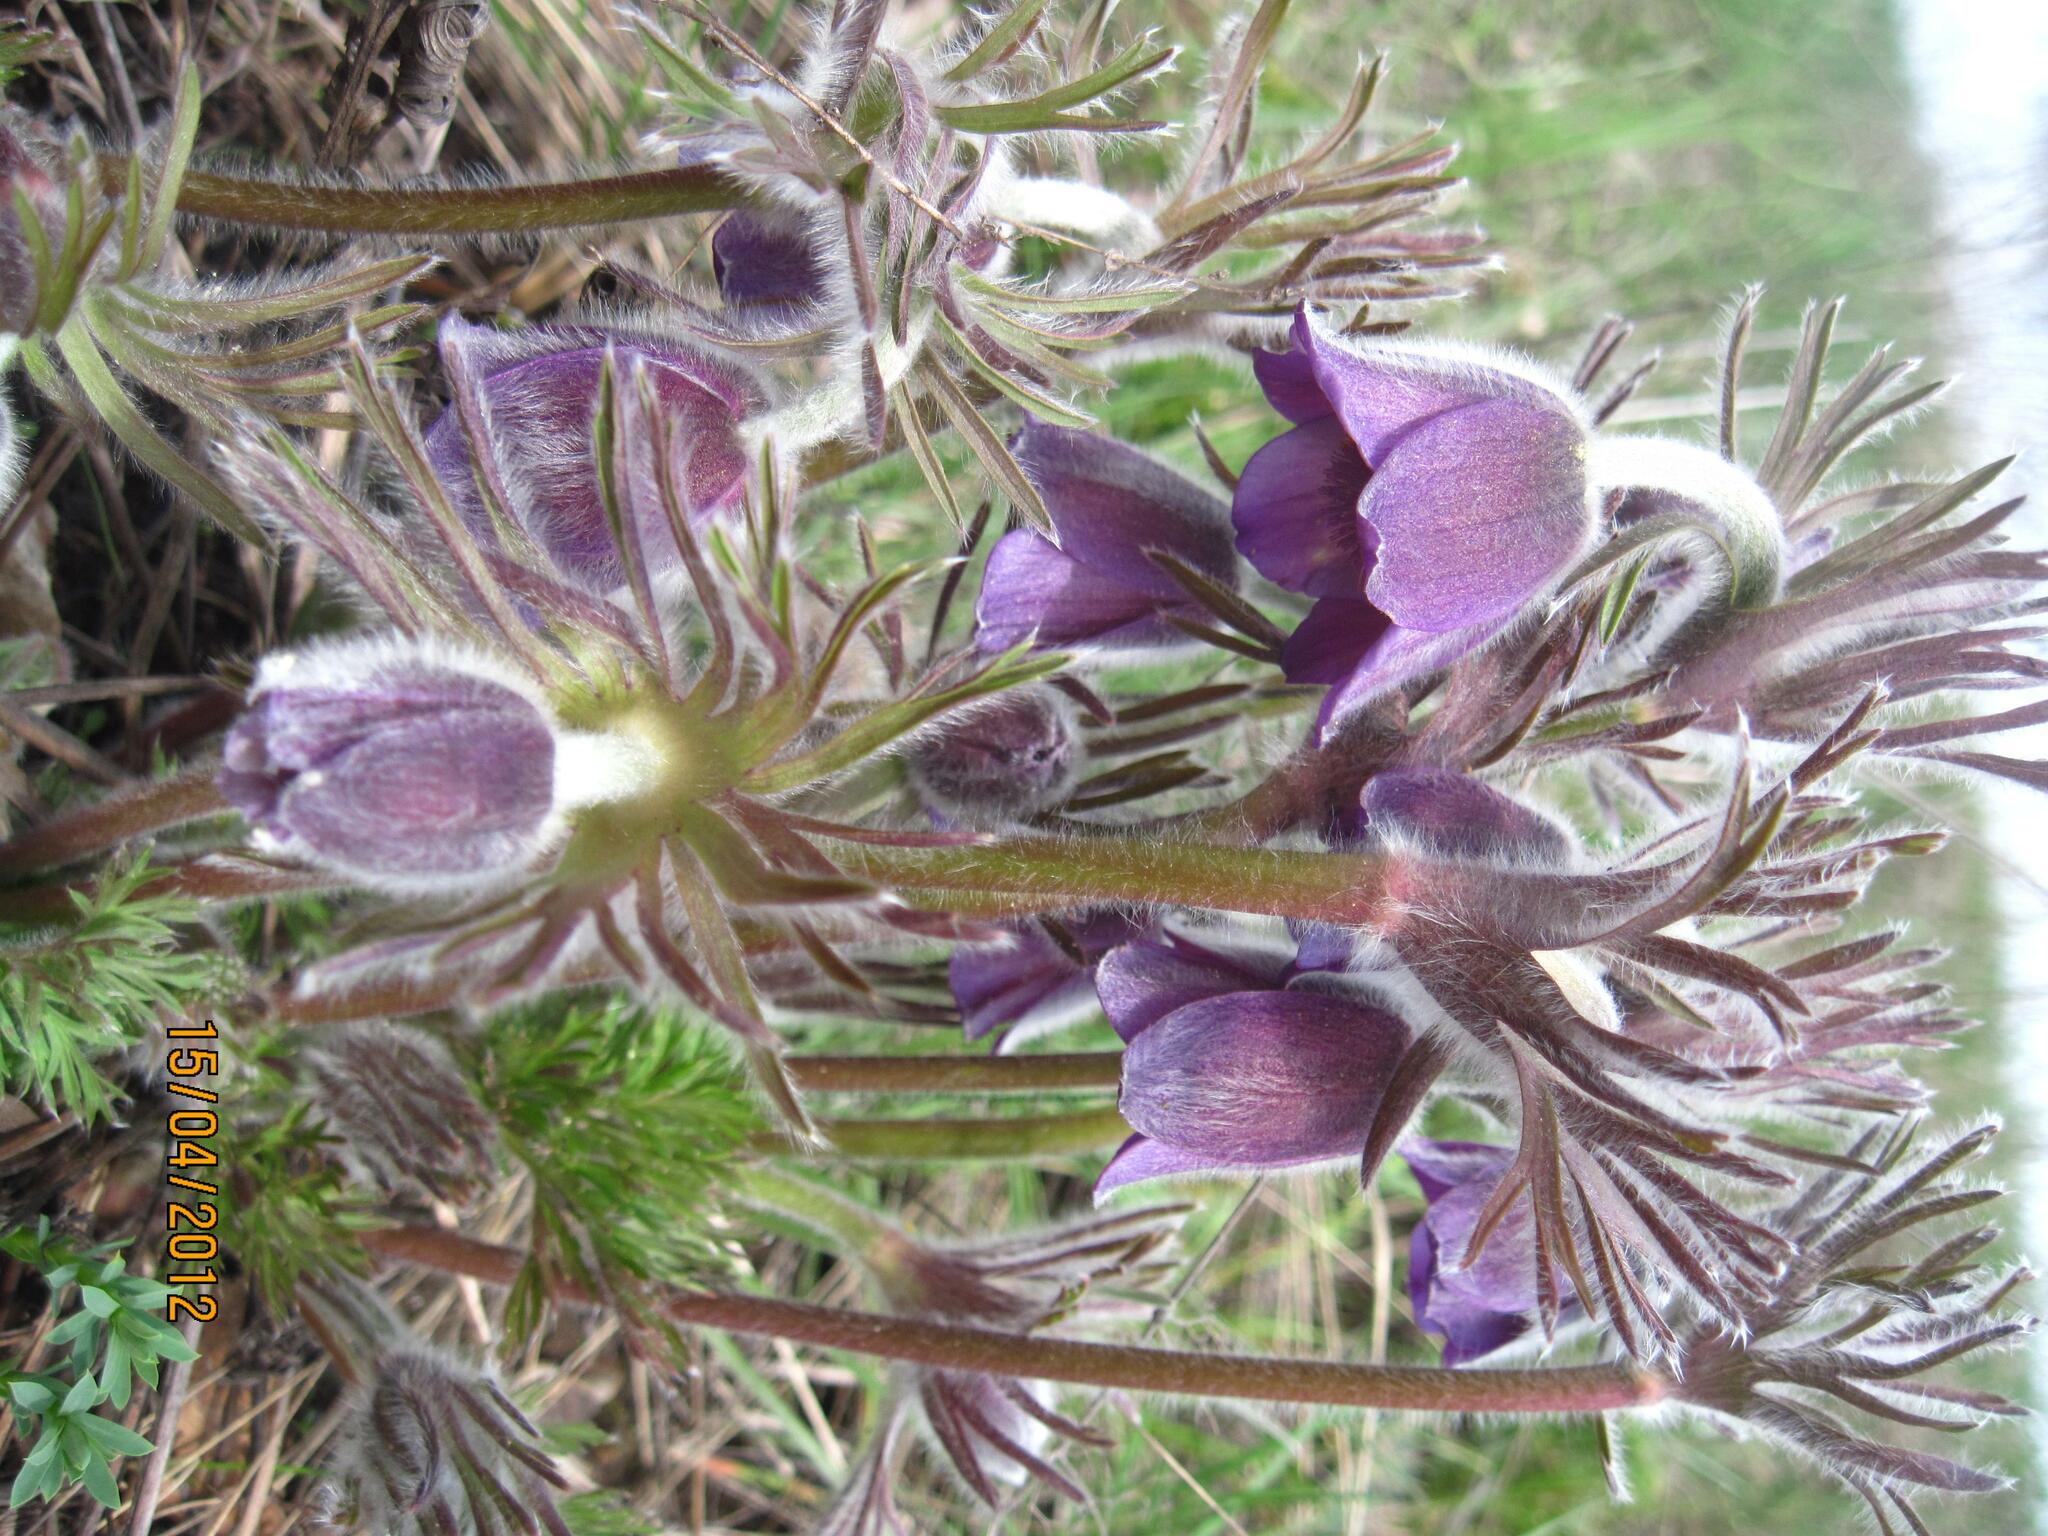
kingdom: Plantae
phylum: Tracheophyta
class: Magnoliopsida
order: Ranunculales
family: Ranunculaceae
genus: Pulsatilla
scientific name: Pulsatilla pratensis
